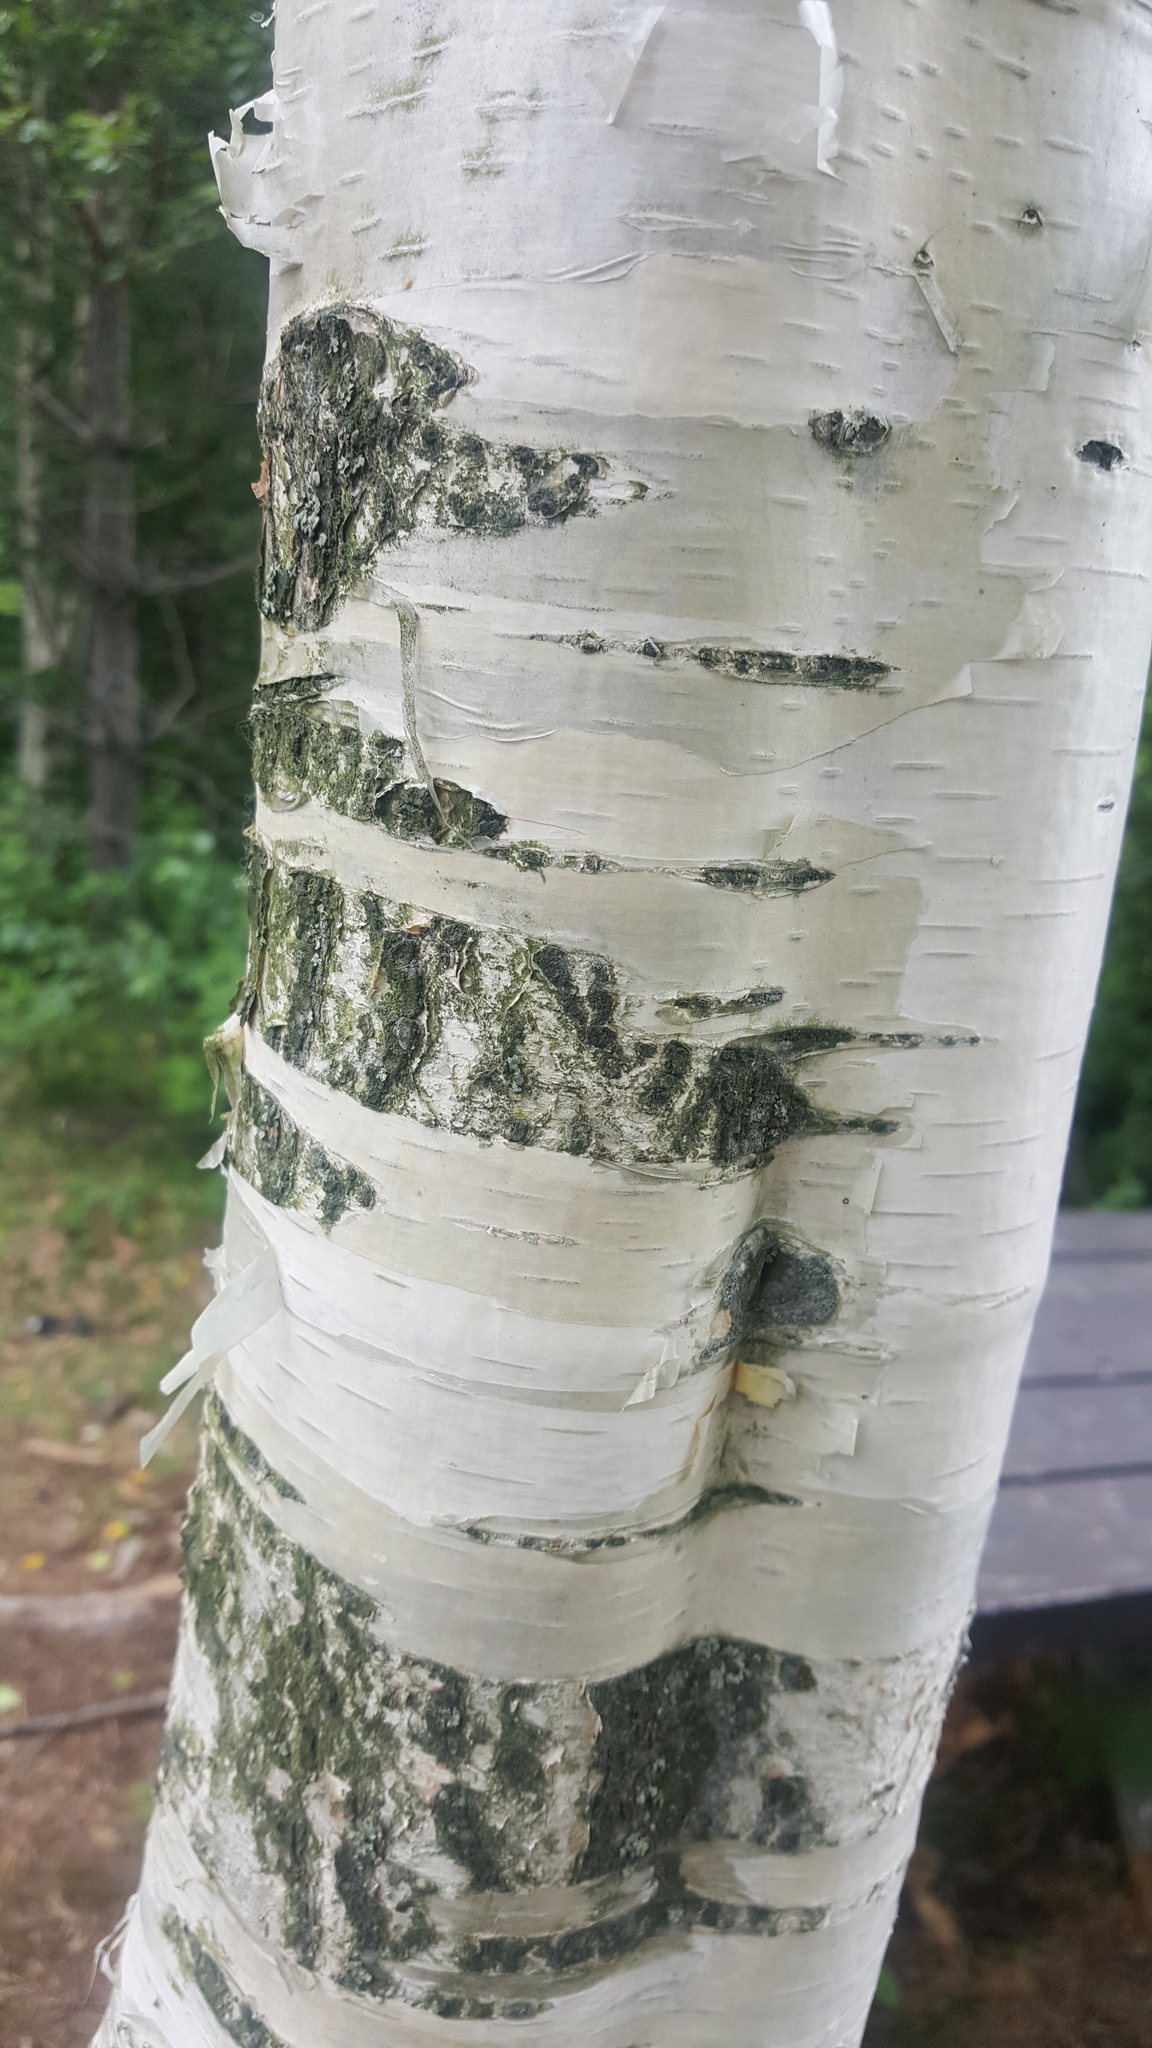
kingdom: Plantae
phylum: Tracheophyta
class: Magnoliopsida
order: Fagales
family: Betulaceae
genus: Betula
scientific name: Betula papyrifera
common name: Paper birch
